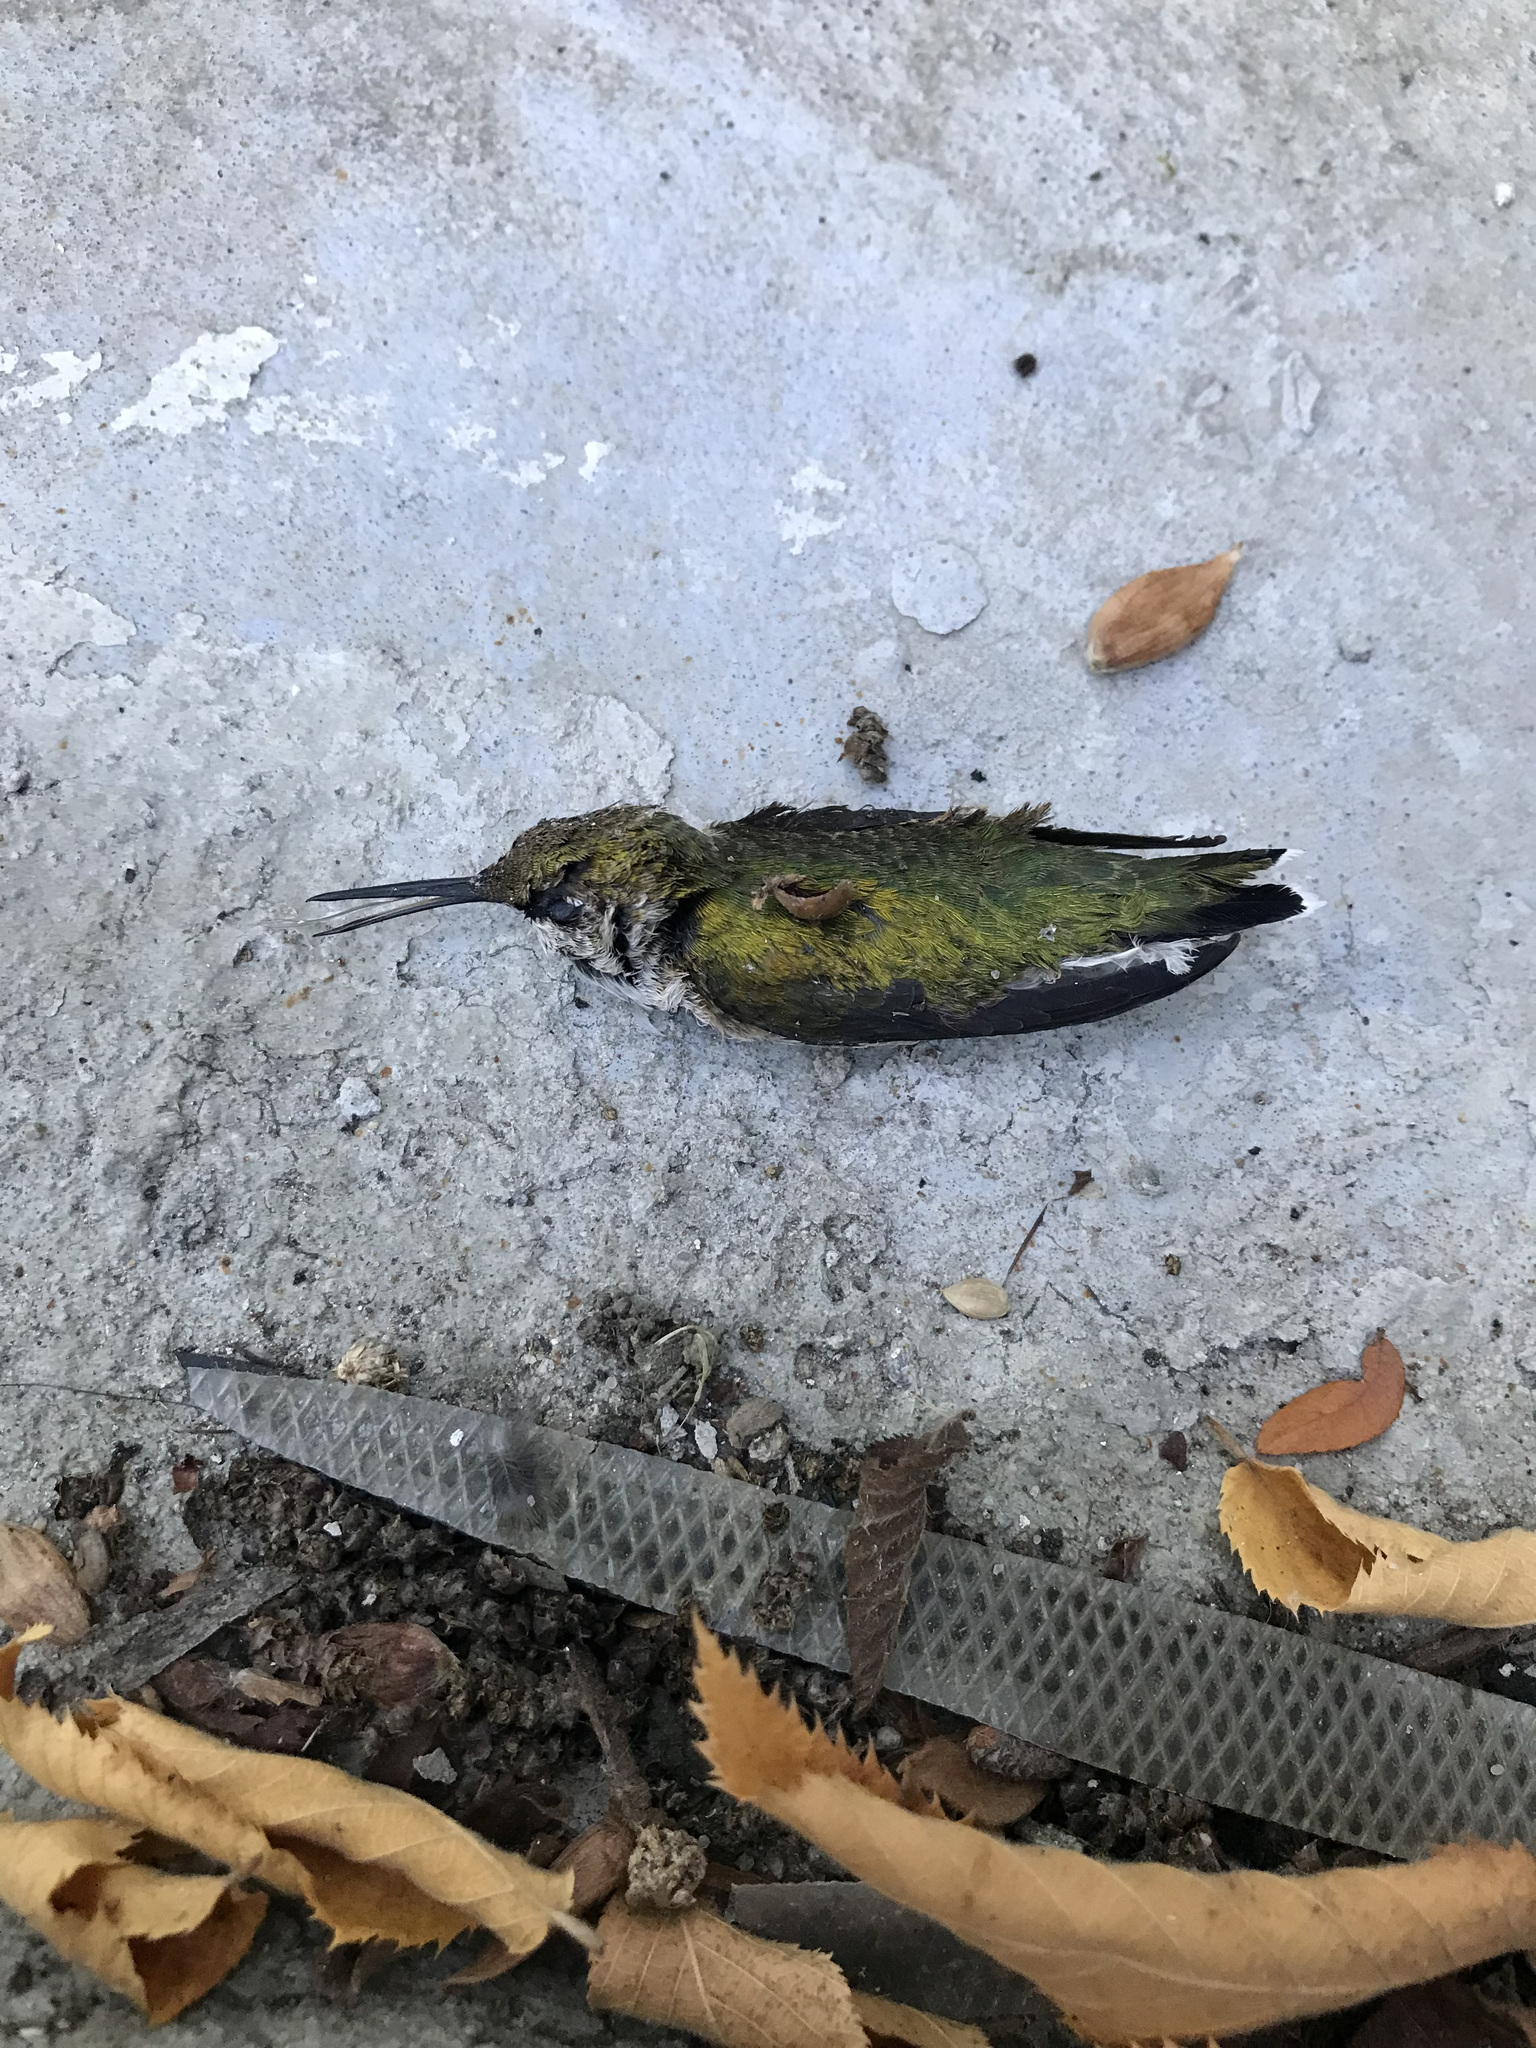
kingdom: Animalia
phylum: Chordata
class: Aves
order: Apodiformes
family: Trochilidae
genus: Archilochus
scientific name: Archilochus colubris
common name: Ruby-throated hummingbird
